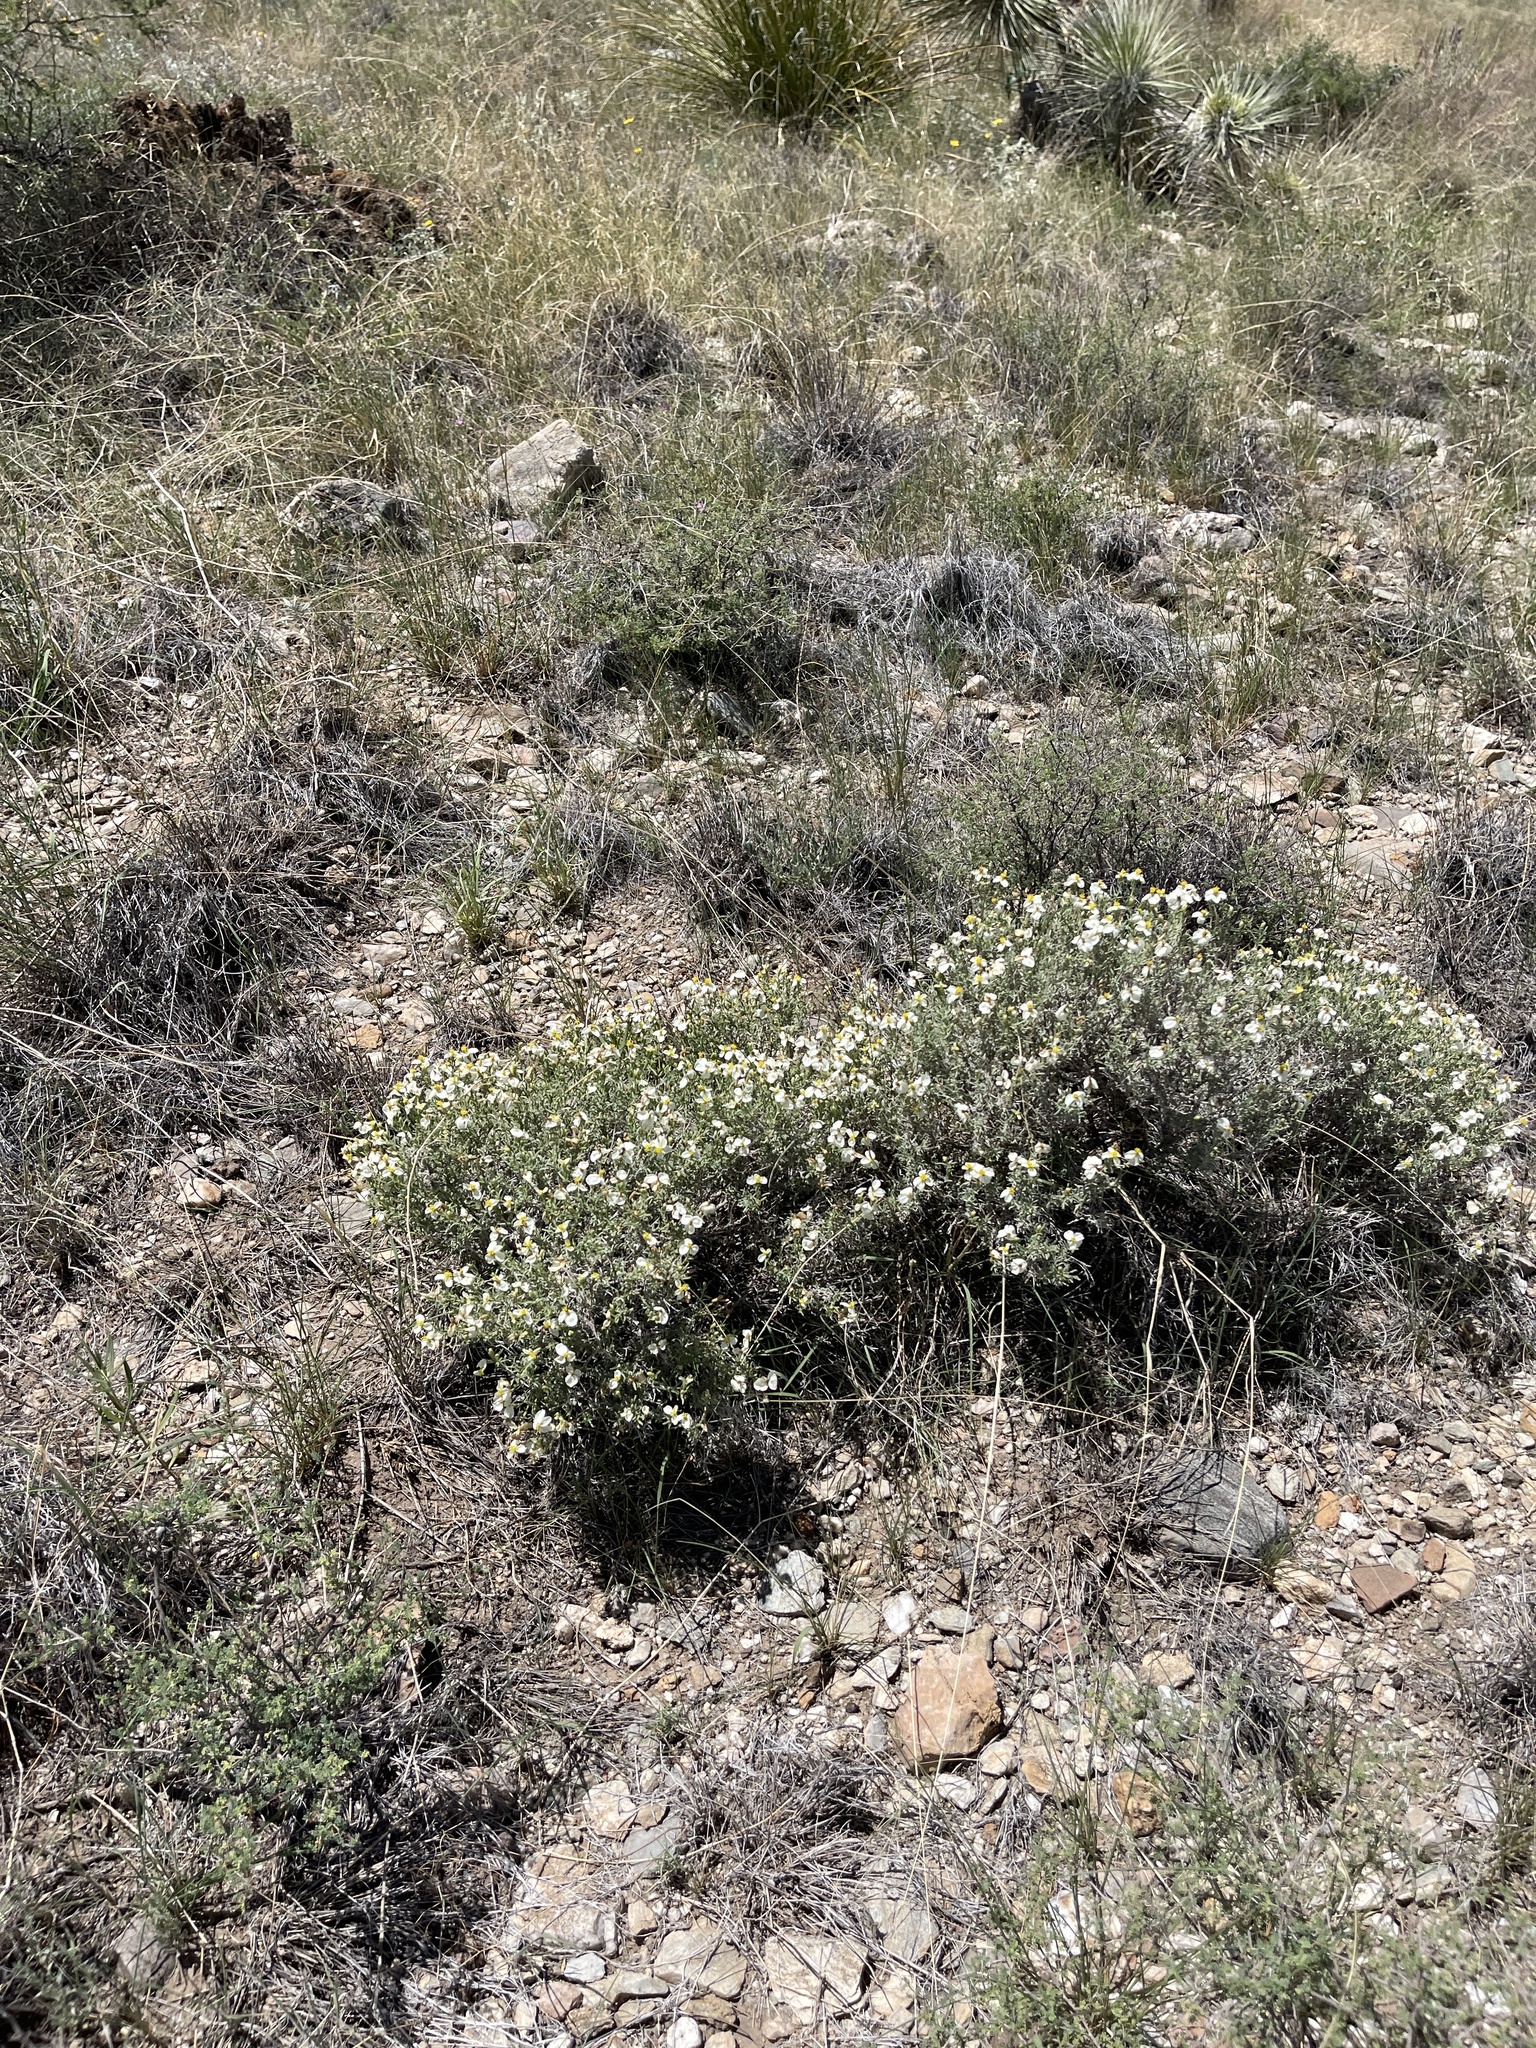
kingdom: Plantae
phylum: Tracheophyta
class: Magnoliopsida
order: Asterales
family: Asteraceae
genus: Zinnia
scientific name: Zinnia acerosa
